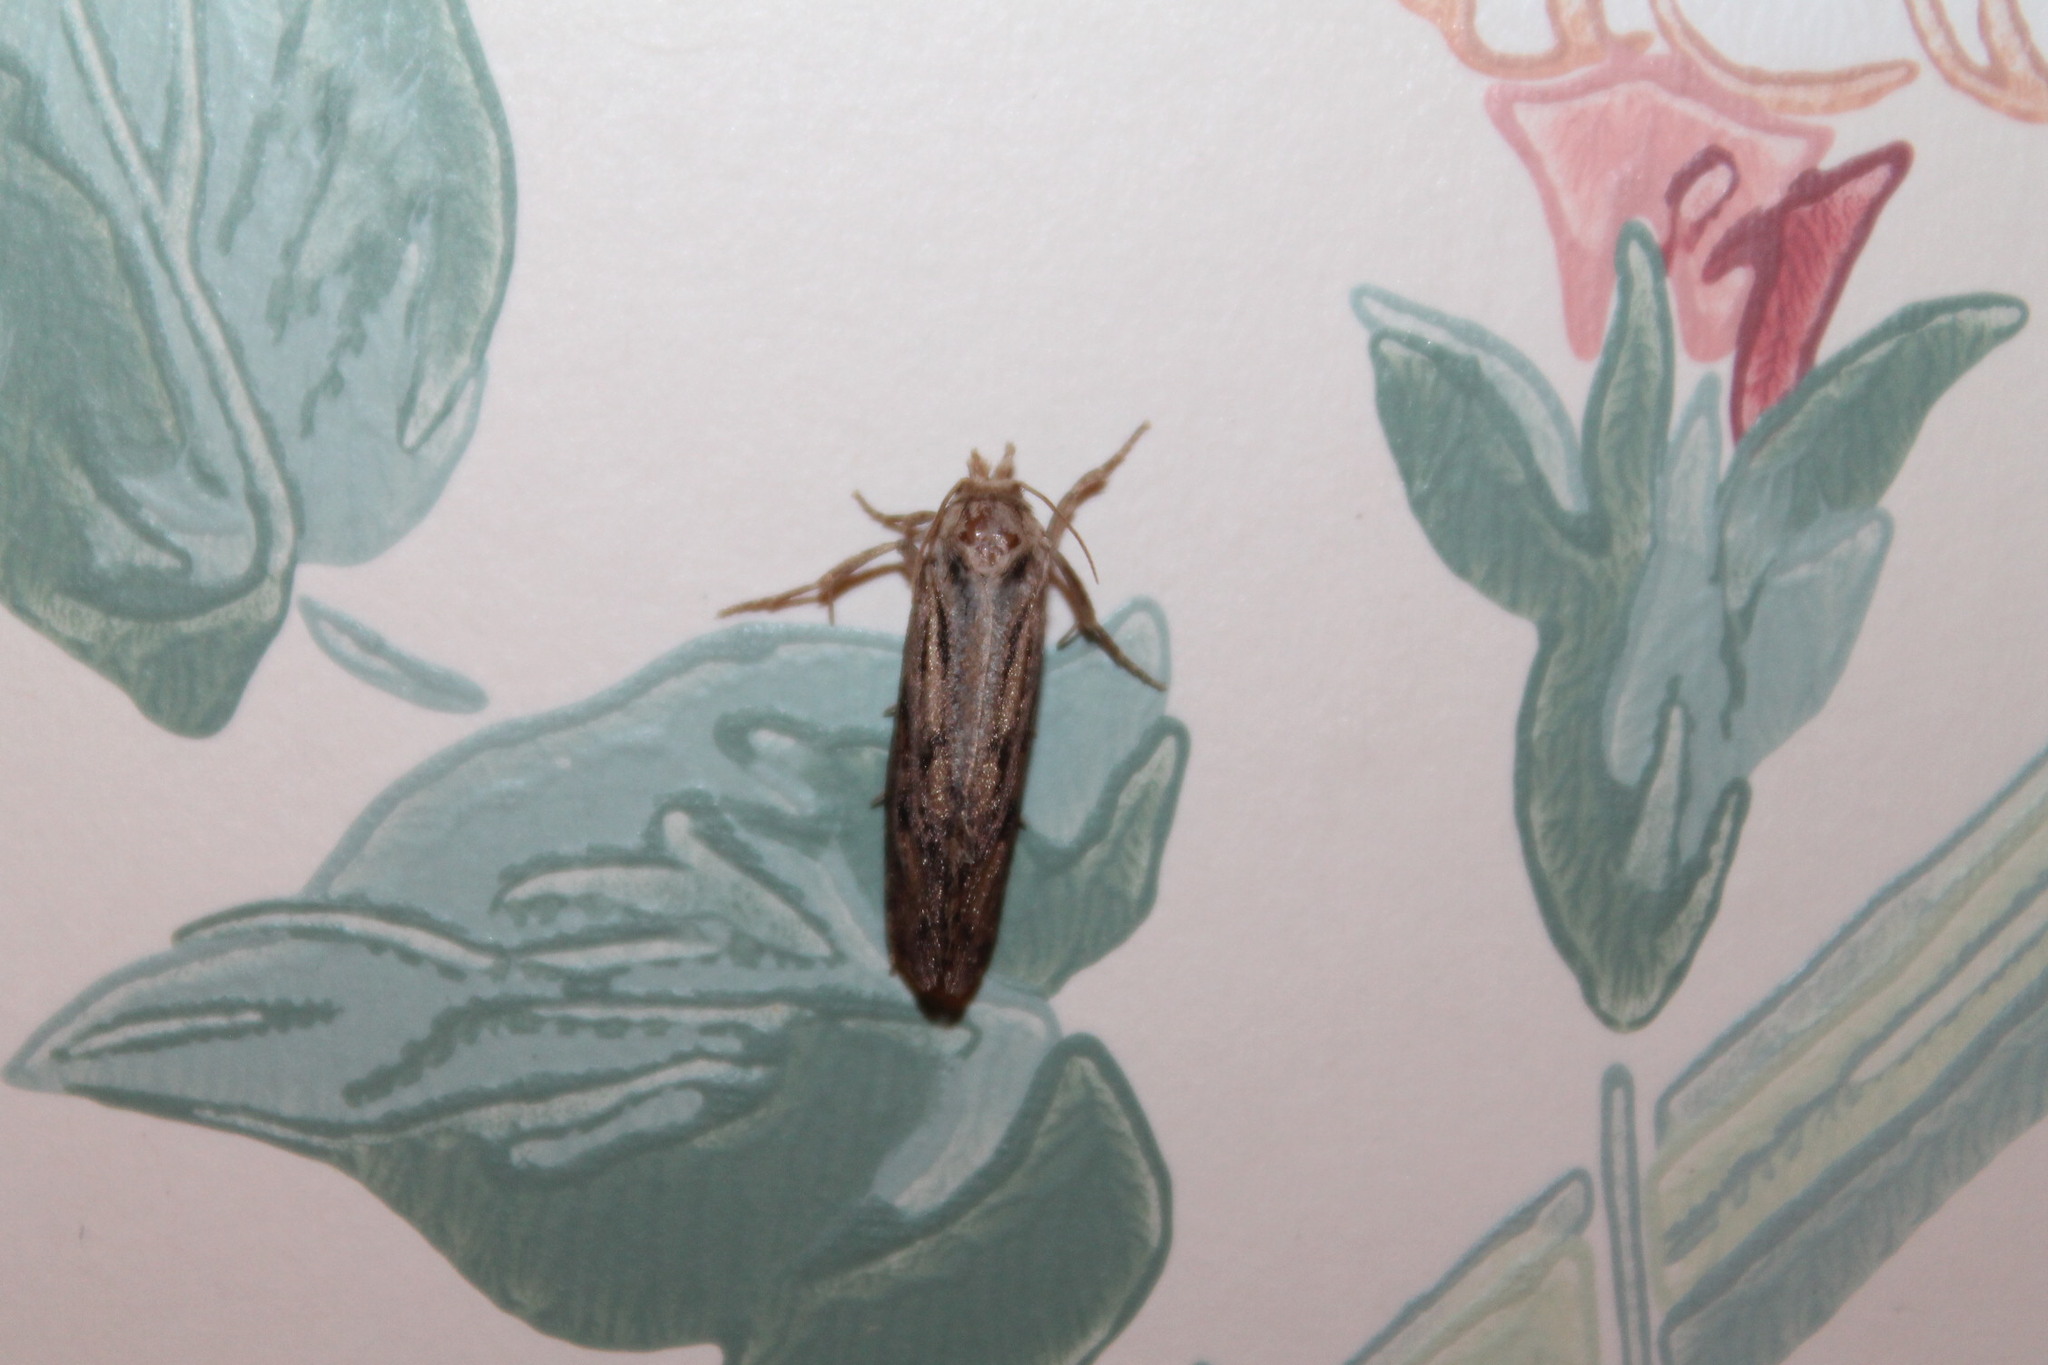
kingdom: Animalia
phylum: Arthropoda
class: Insecta
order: Lepidoptera
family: Tineidae
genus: Acrolophus
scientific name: Acrolophus popeanella
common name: Clemens' grass tubeworm moth
